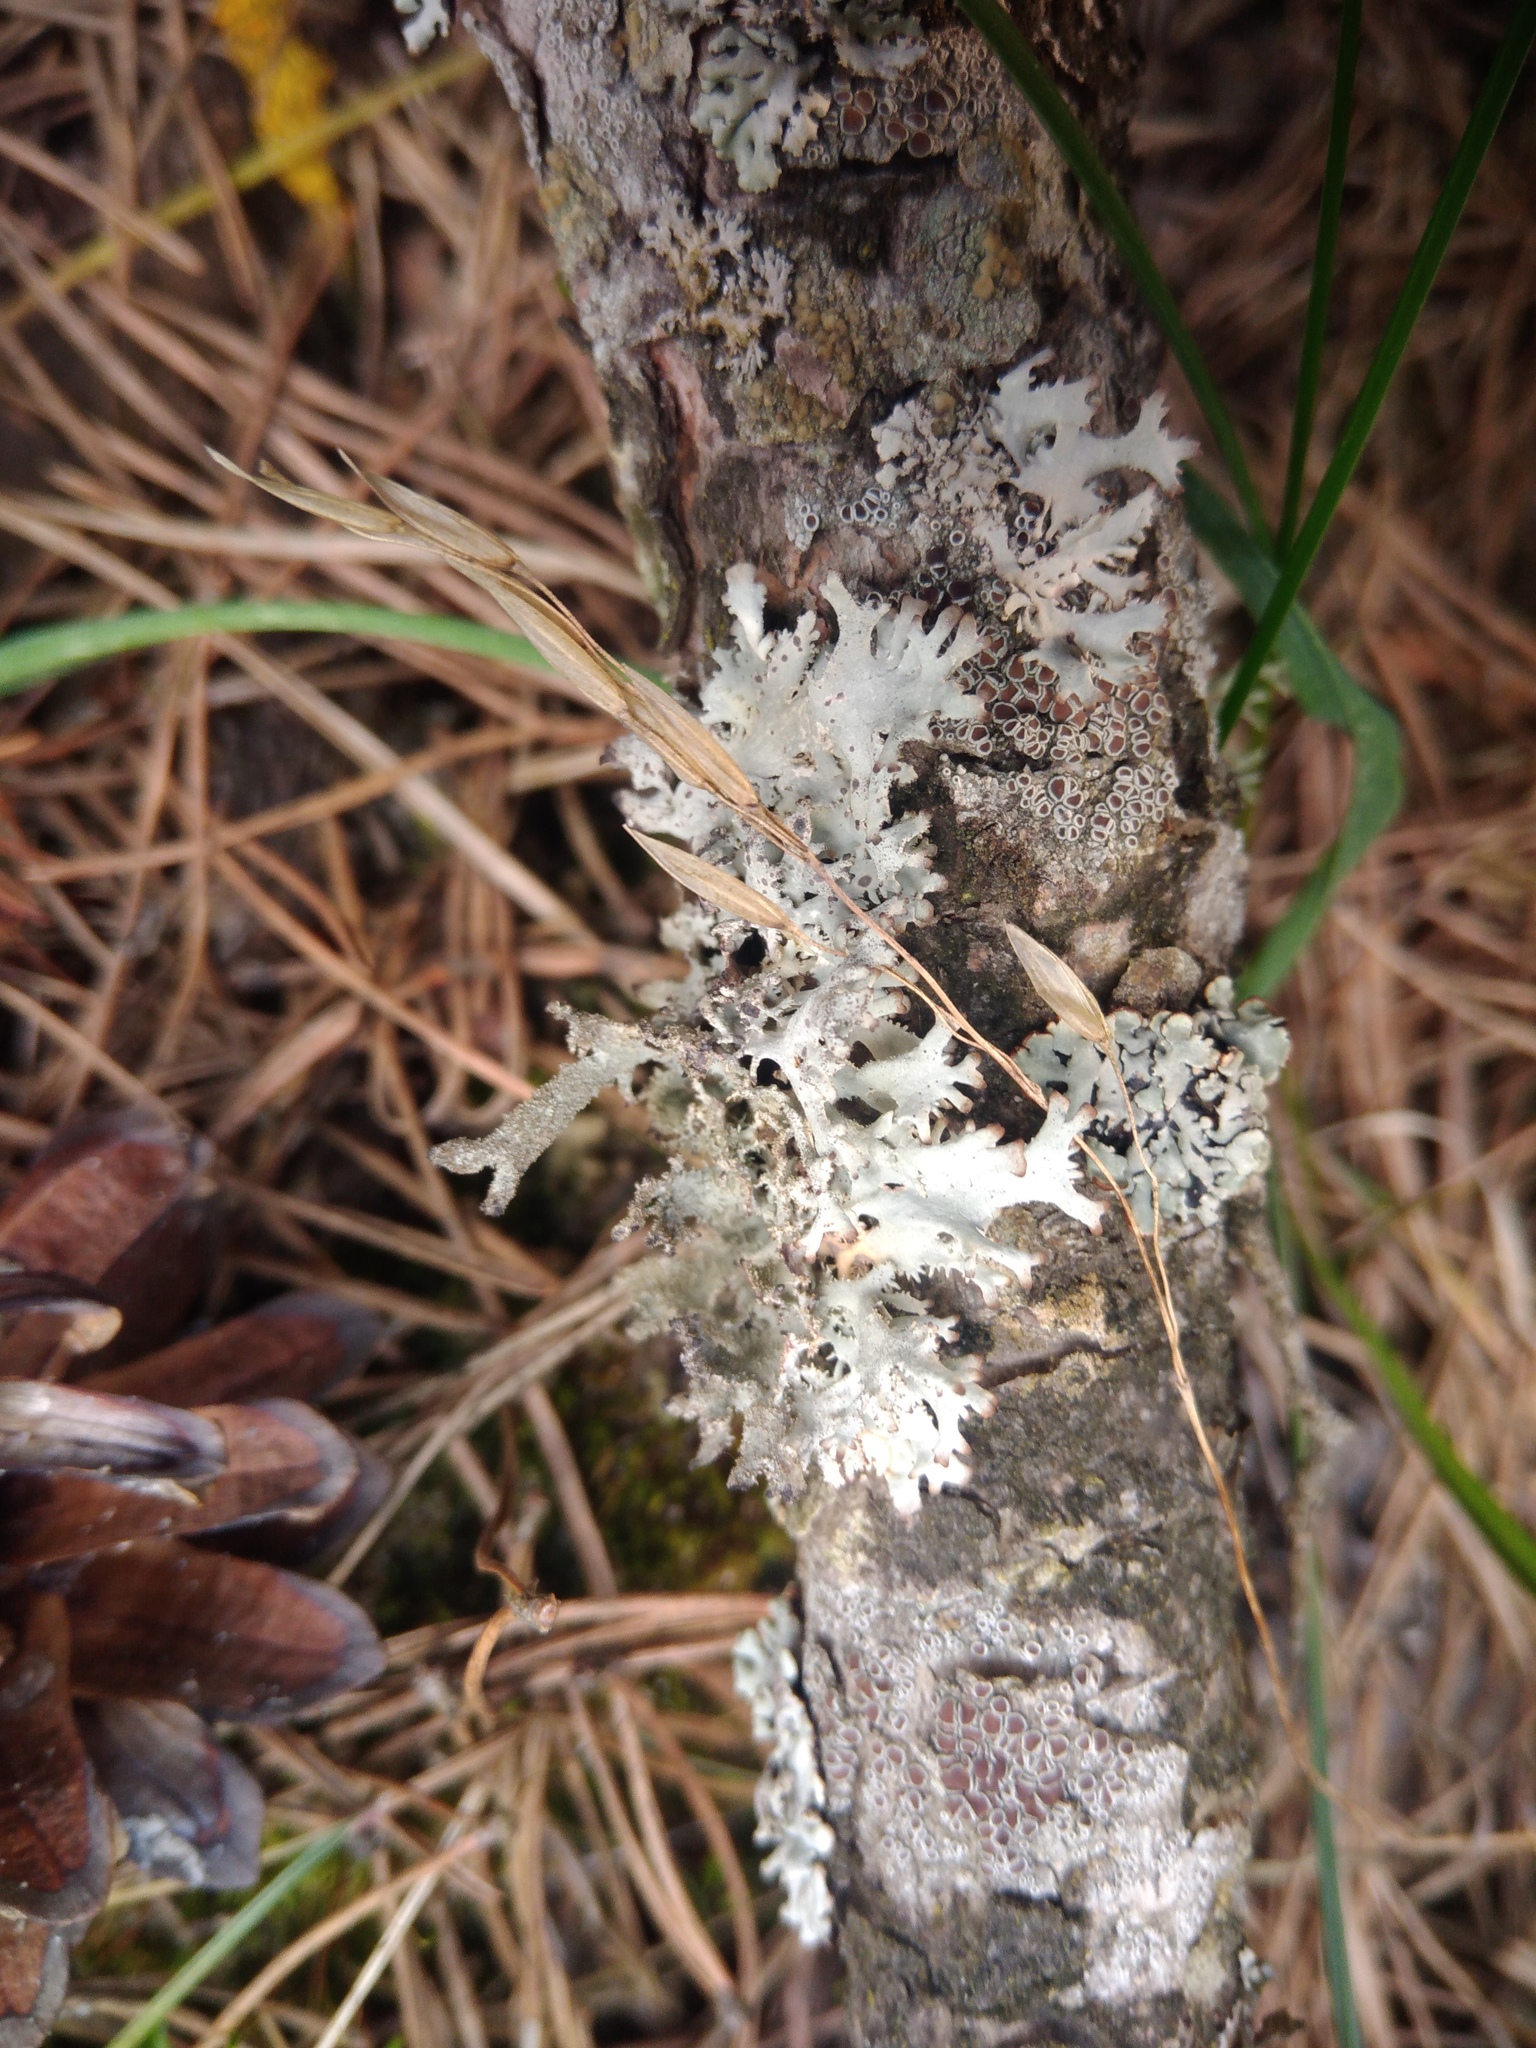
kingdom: Fungi
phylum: Ascomycota
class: Lecanoromycetes
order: Lecanorales
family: Parmeliaceae
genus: Pseudevernia
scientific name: Pseudevernia furfuracea
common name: Tree moss
